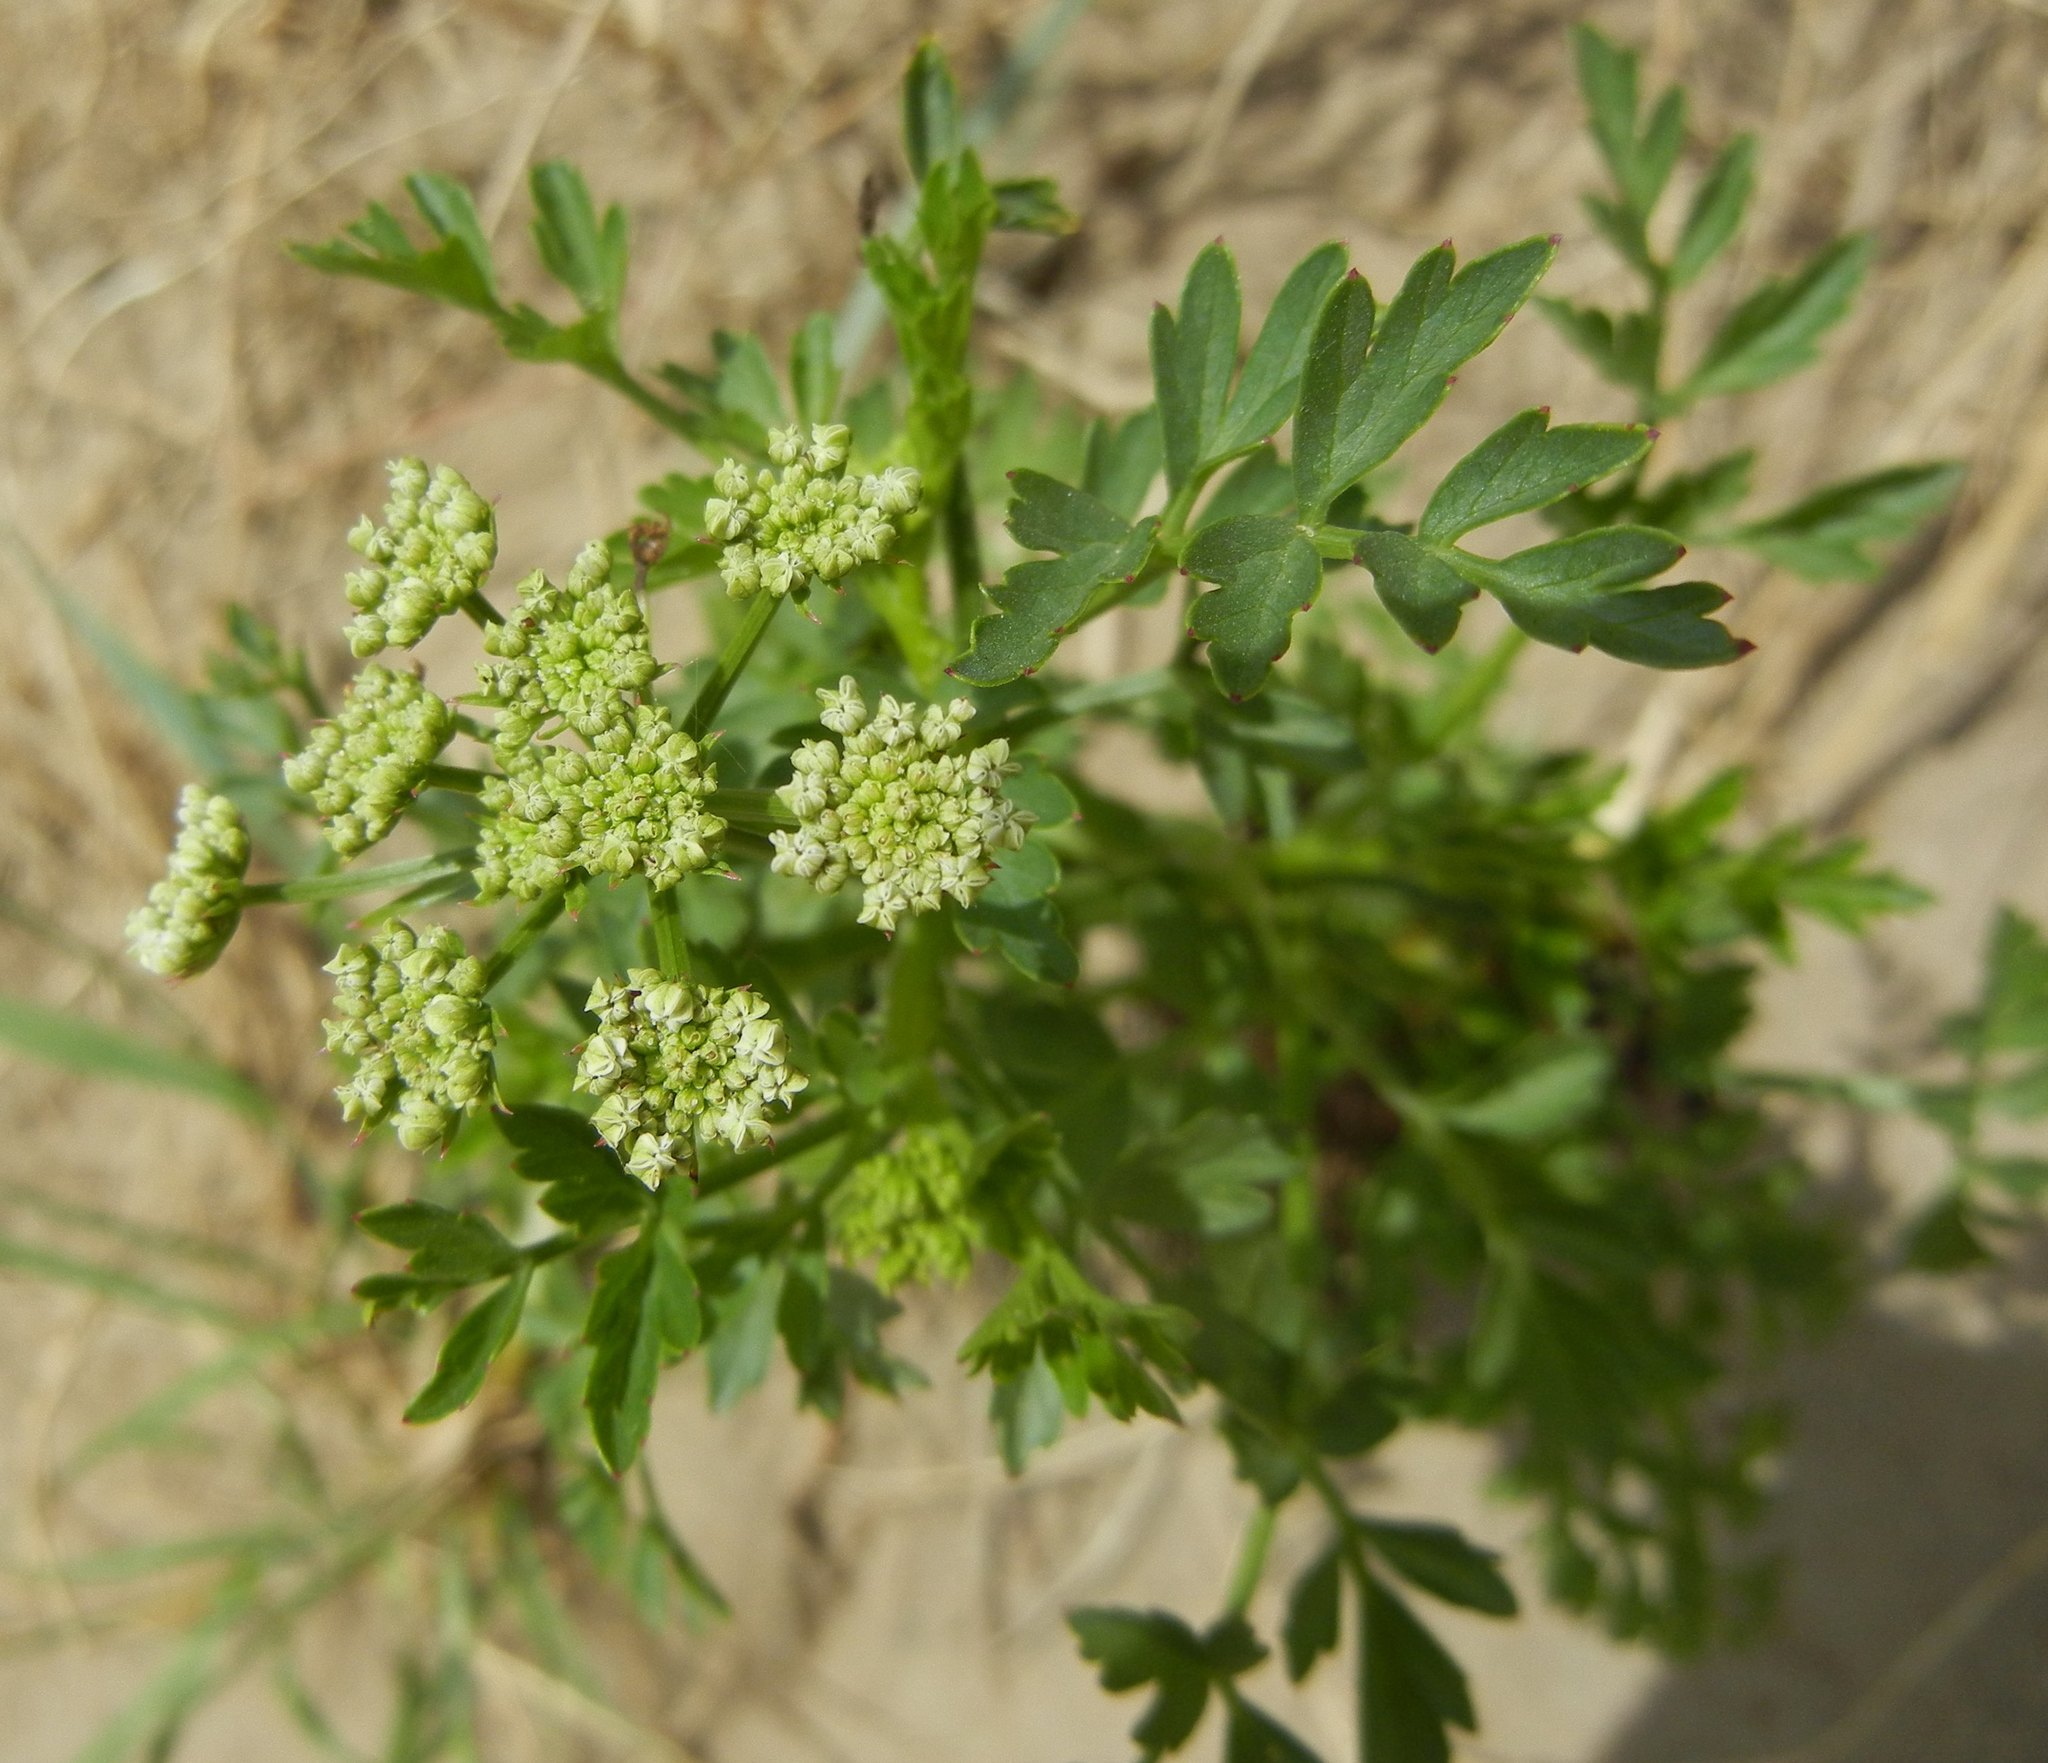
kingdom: Plantae
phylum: Tracheophyta
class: Magnoliopsida
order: Apiales
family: Apiaceae
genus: Oenanthe
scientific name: Oenanthe crocata
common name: Hemlock water-dropwort
